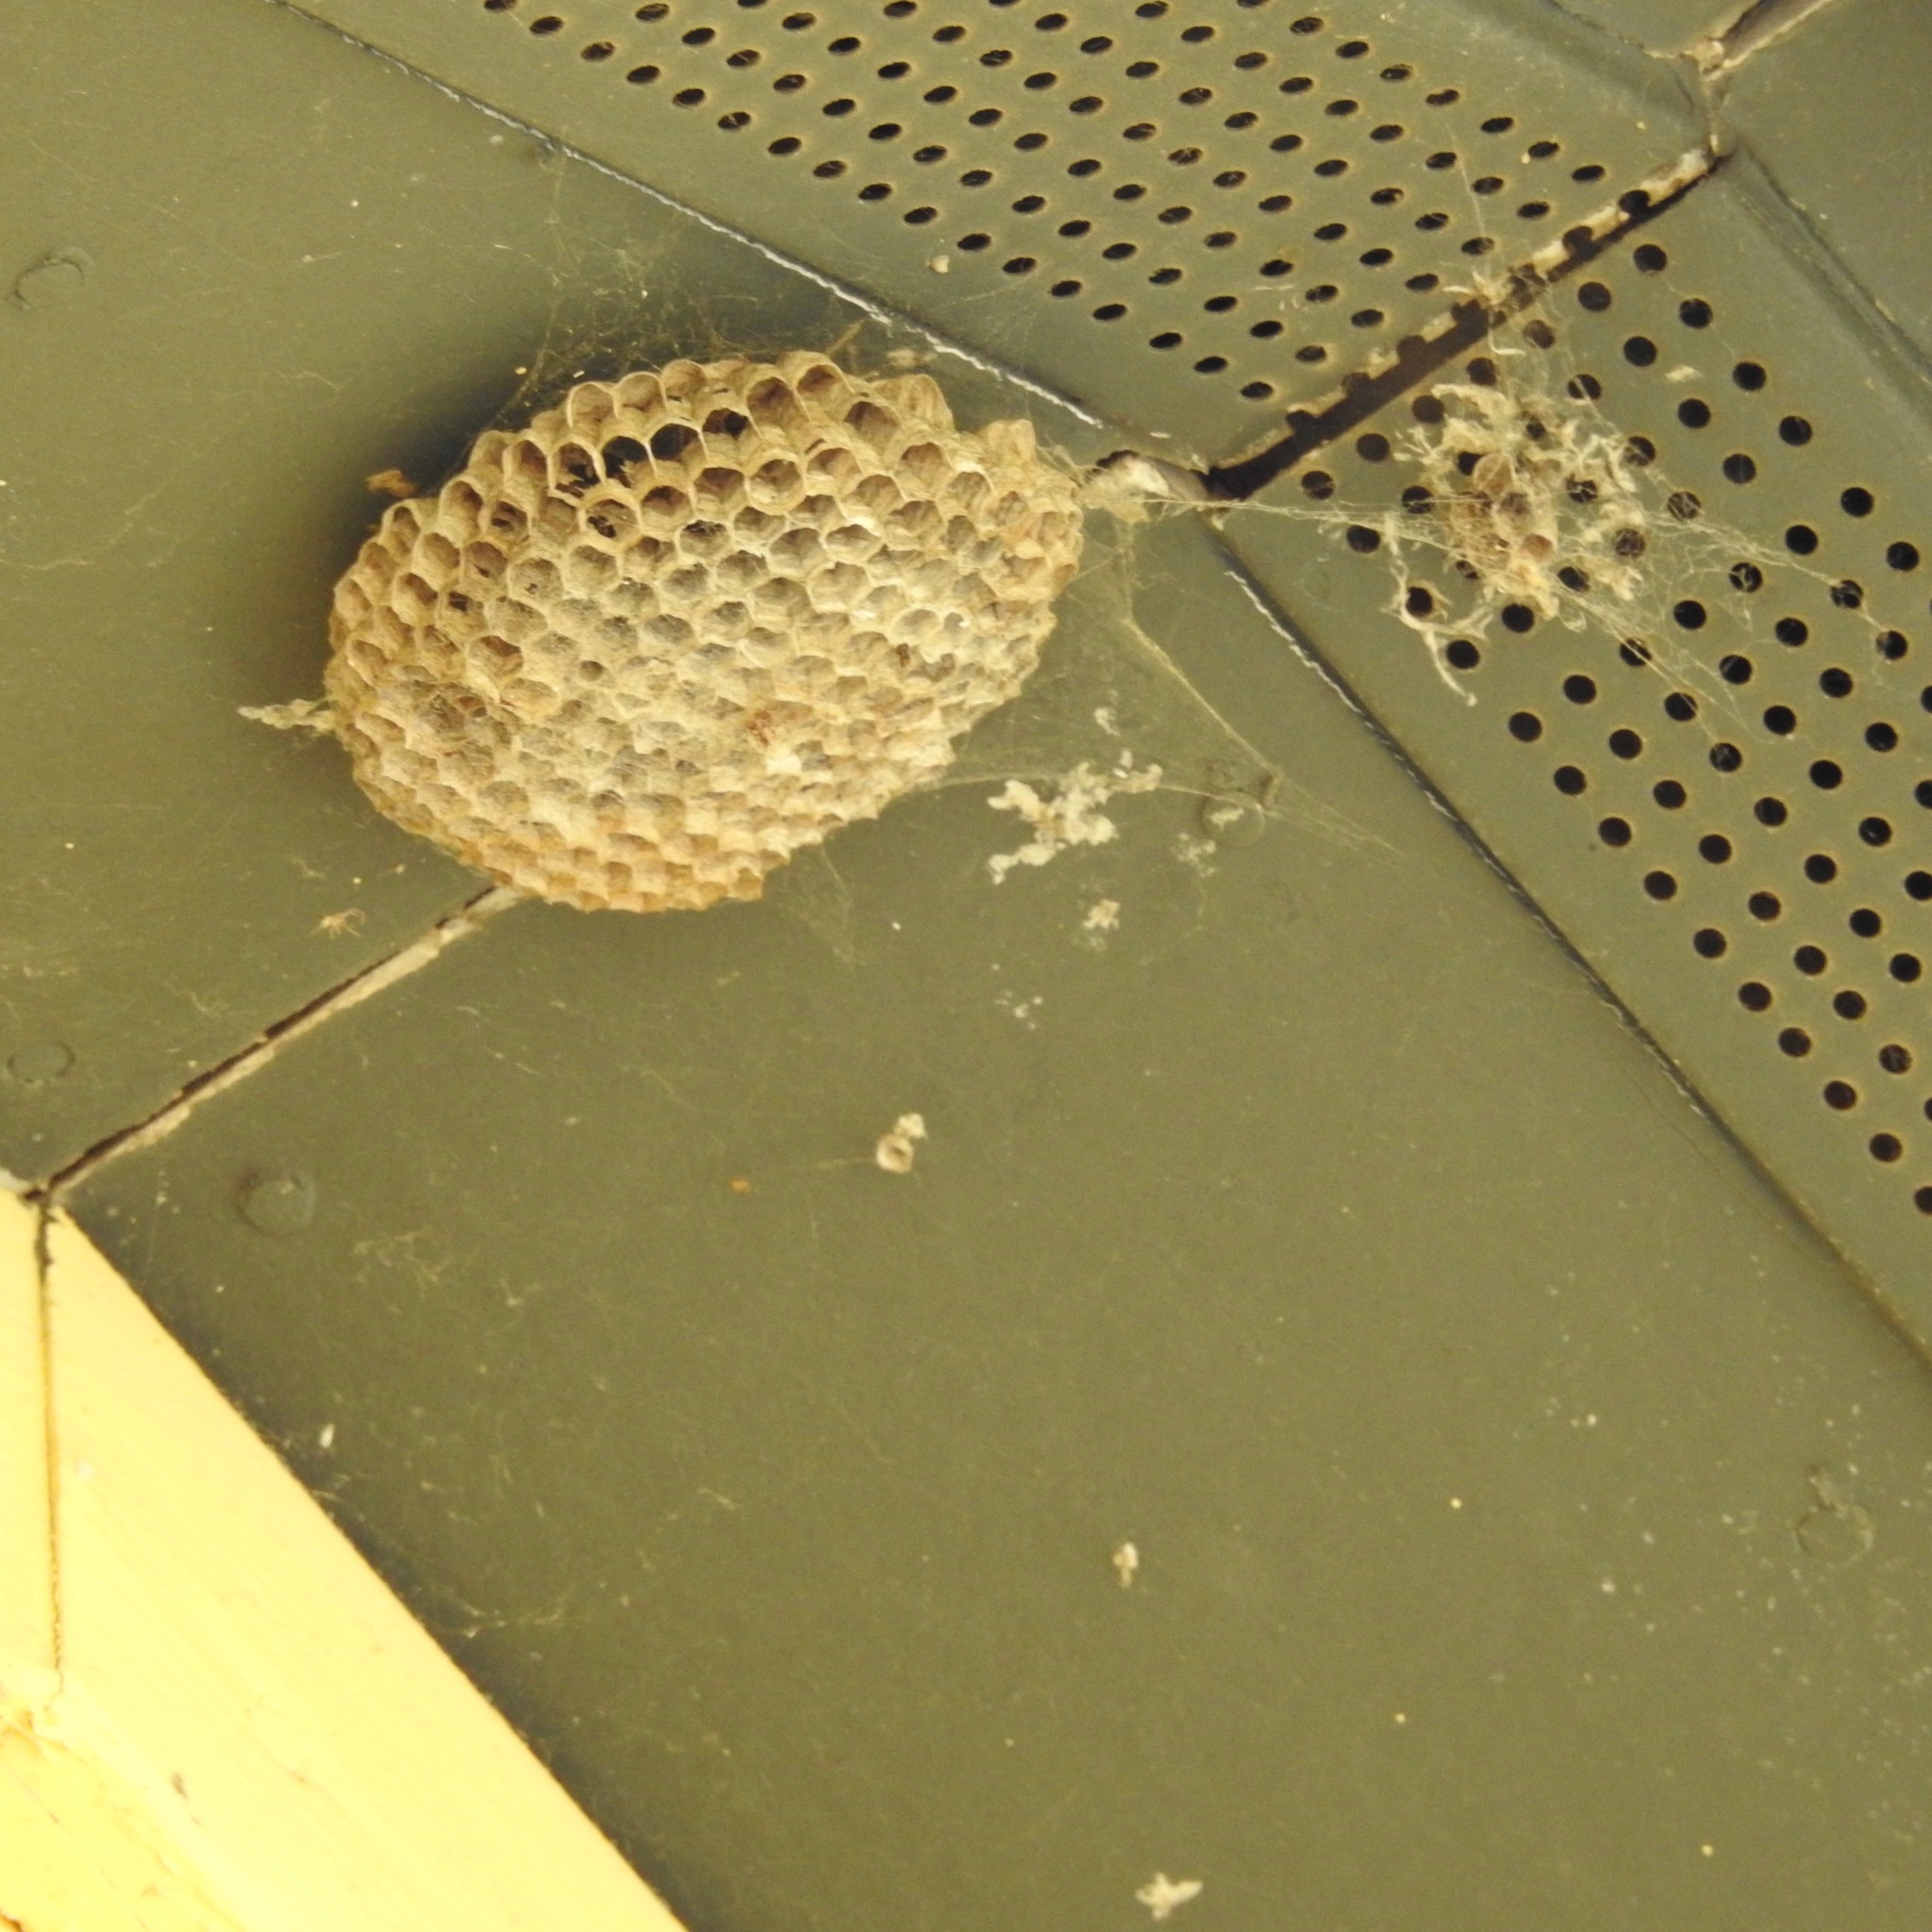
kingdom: Animalia
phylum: Arthropoda
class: Insecta
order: Hymenoptera
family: Eumenidae
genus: Polistes
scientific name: Polistes
